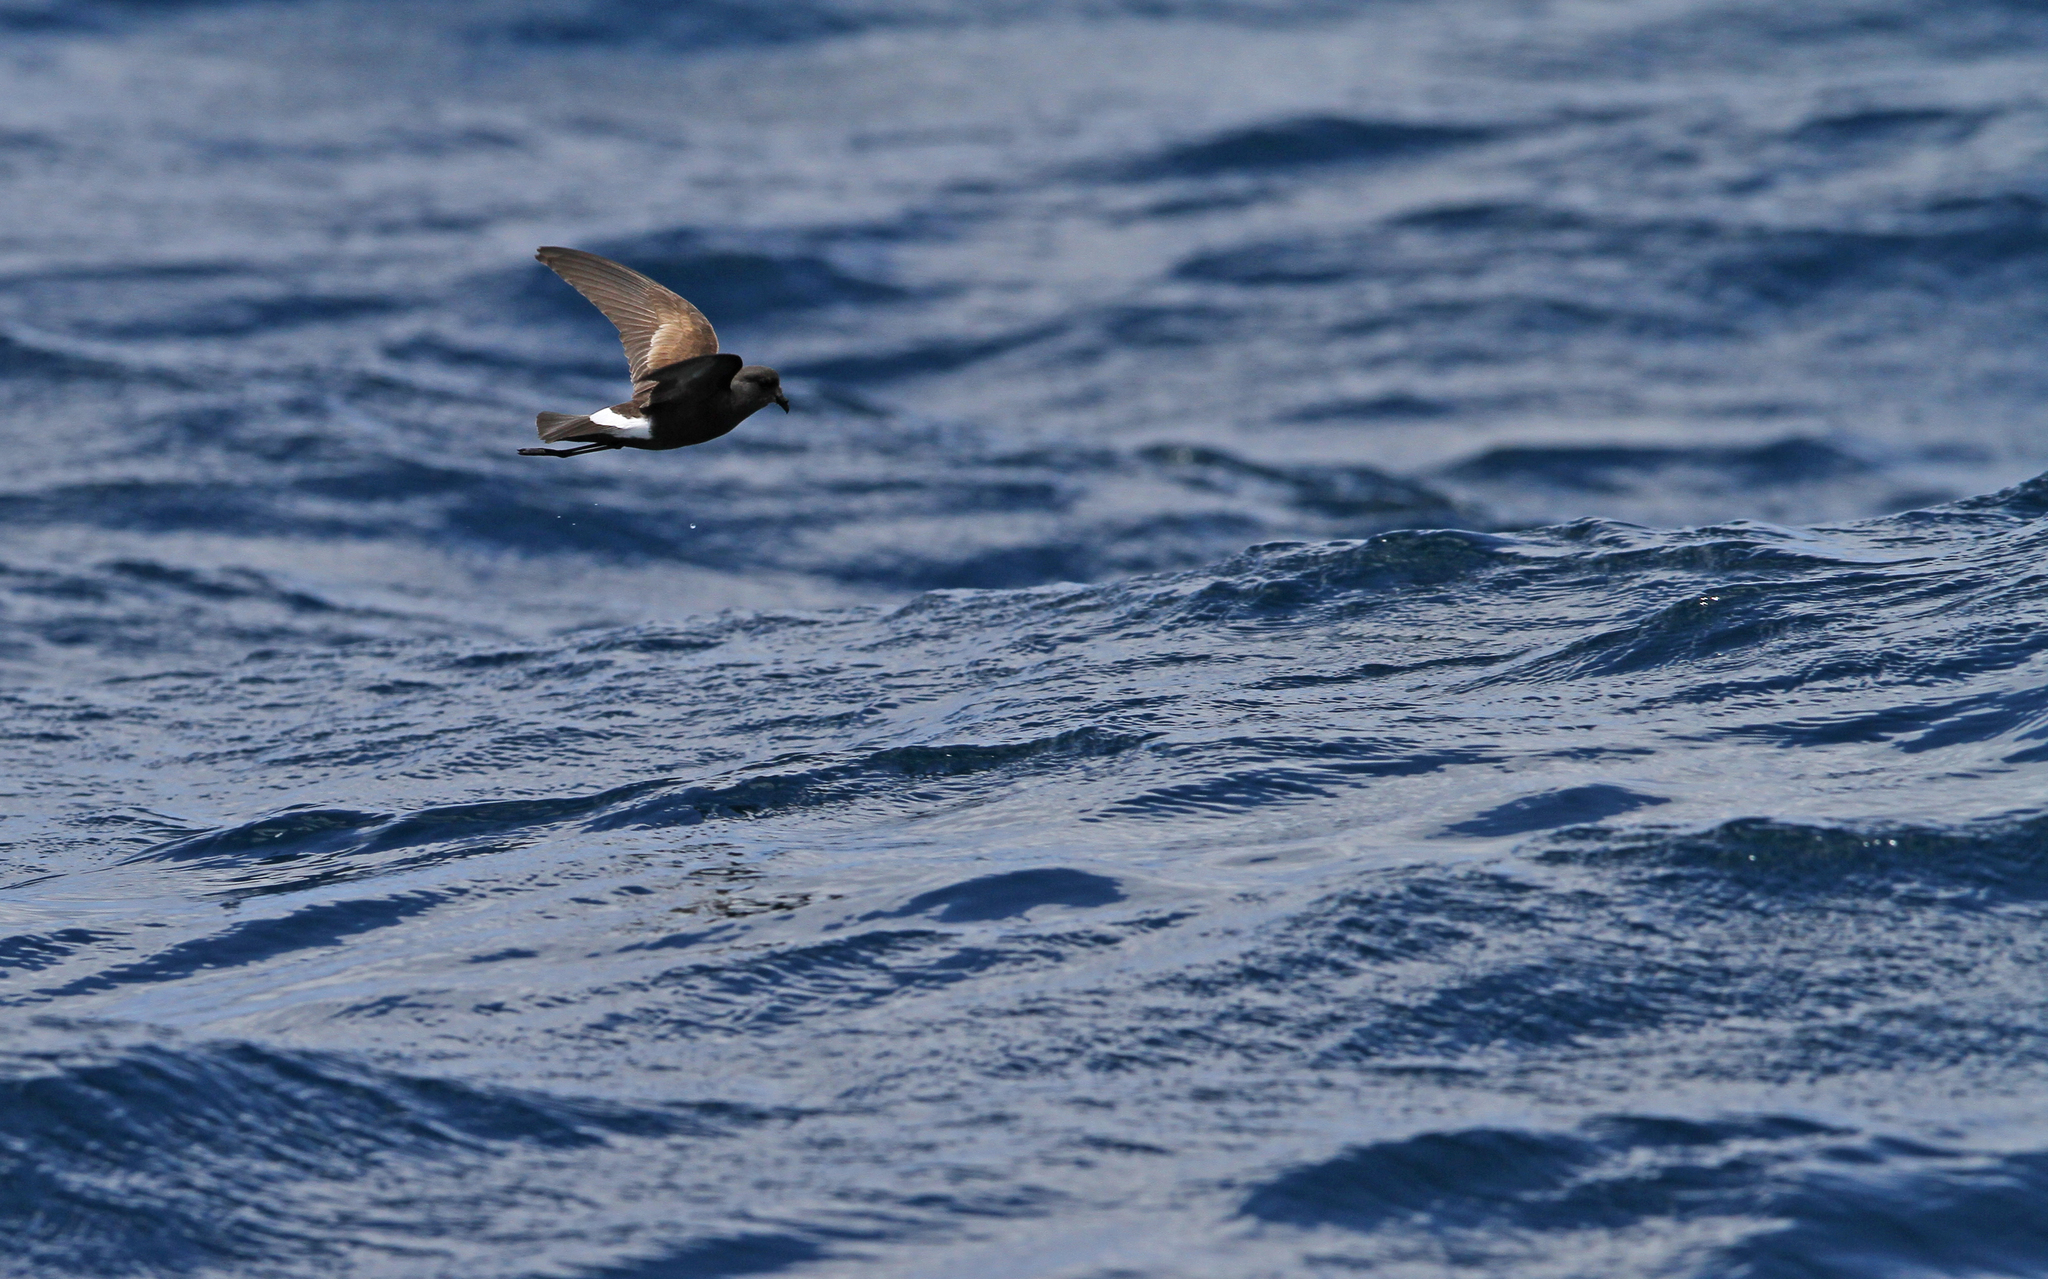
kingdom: Animalia
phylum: Chordata
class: Aves
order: Procellariiformes
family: Hydrobatidae
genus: Oceanites
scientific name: Oceanites oceanicus
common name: Wilson's storm petrel
